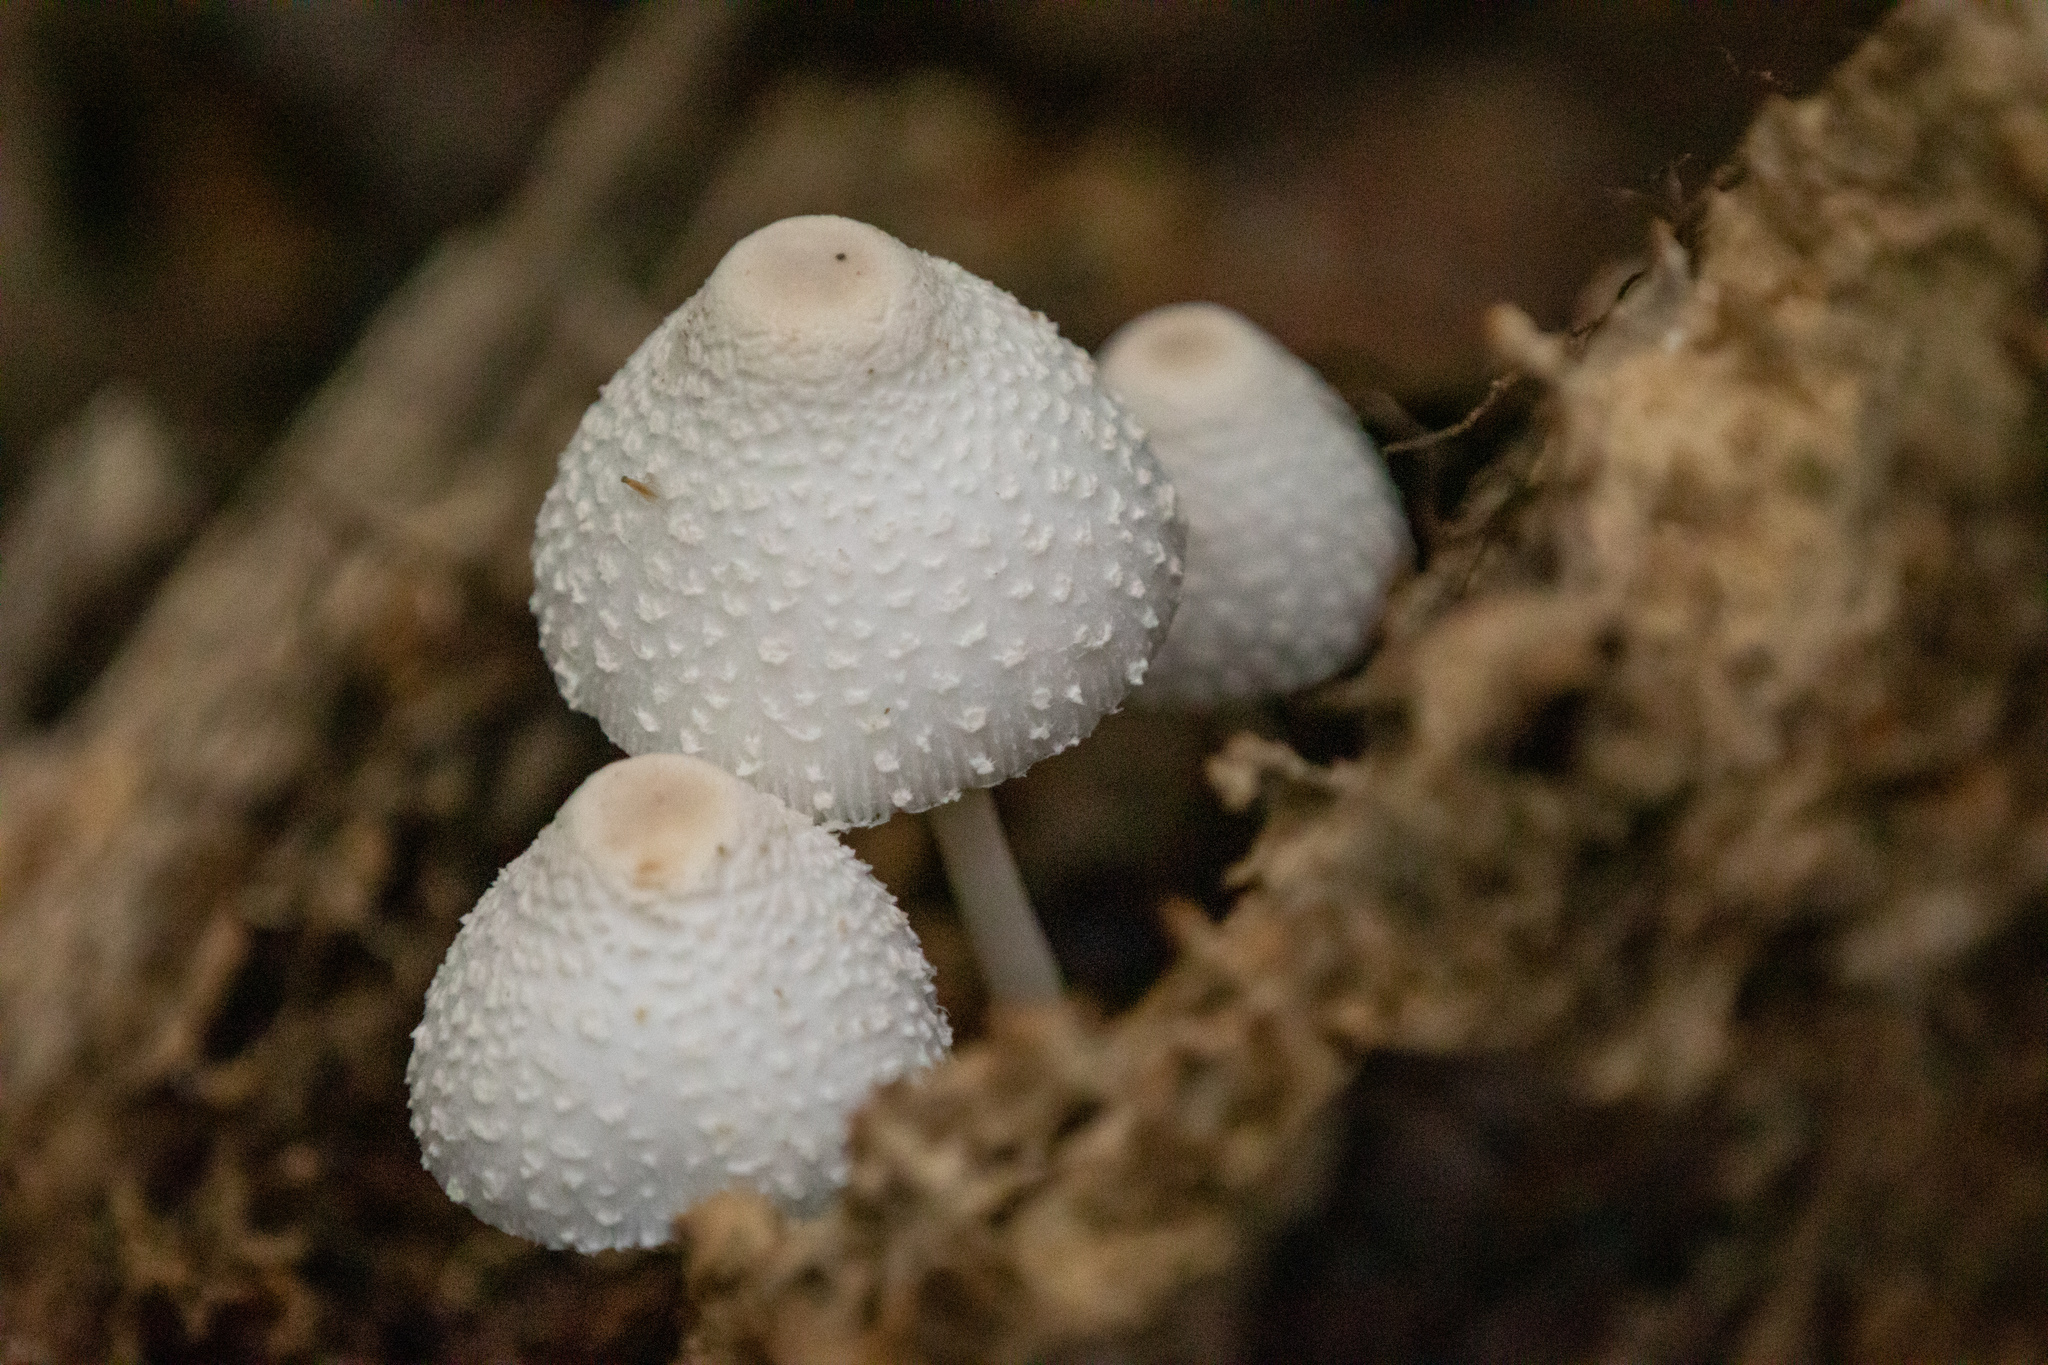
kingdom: Fungi
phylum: Basidiomycota
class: Agaricomycetes
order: Agaricales
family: Agaricaceae
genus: Leucocoprinus
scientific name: Leucocoprinus cepistipes
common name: Onion-stalk parasol
